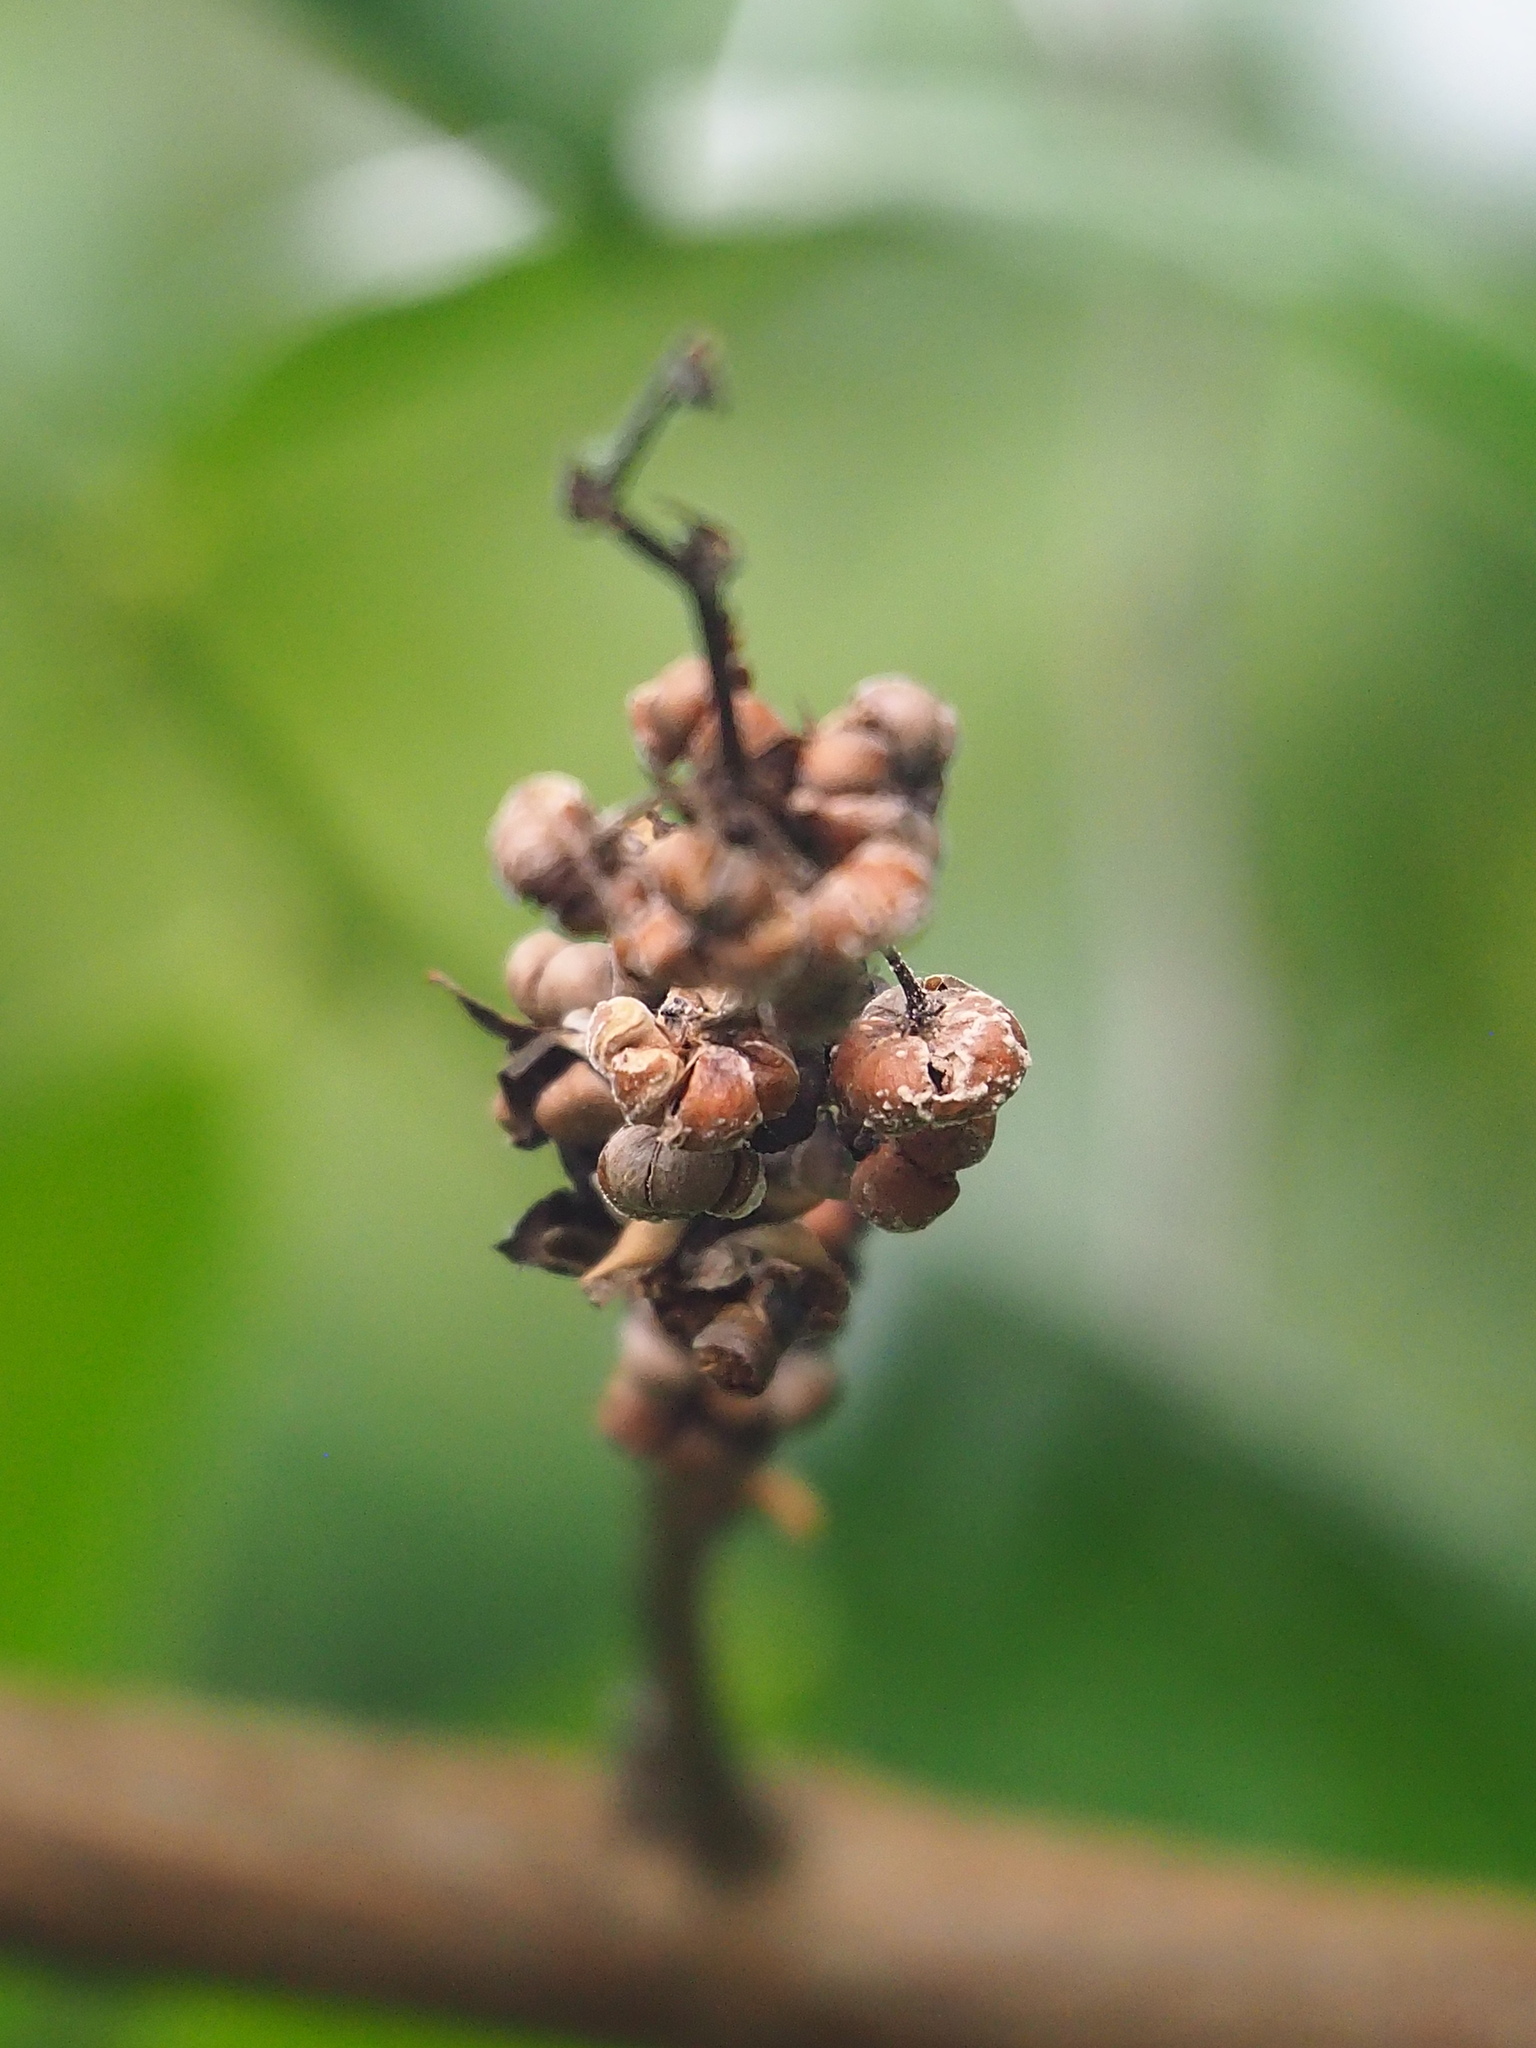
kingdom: Plantae
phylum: Tracheophyta
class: Magnoliopsida
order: Malpighiales
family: Phyllanthaceae
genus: Glochidion
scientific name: Glochidion zeylanicum
